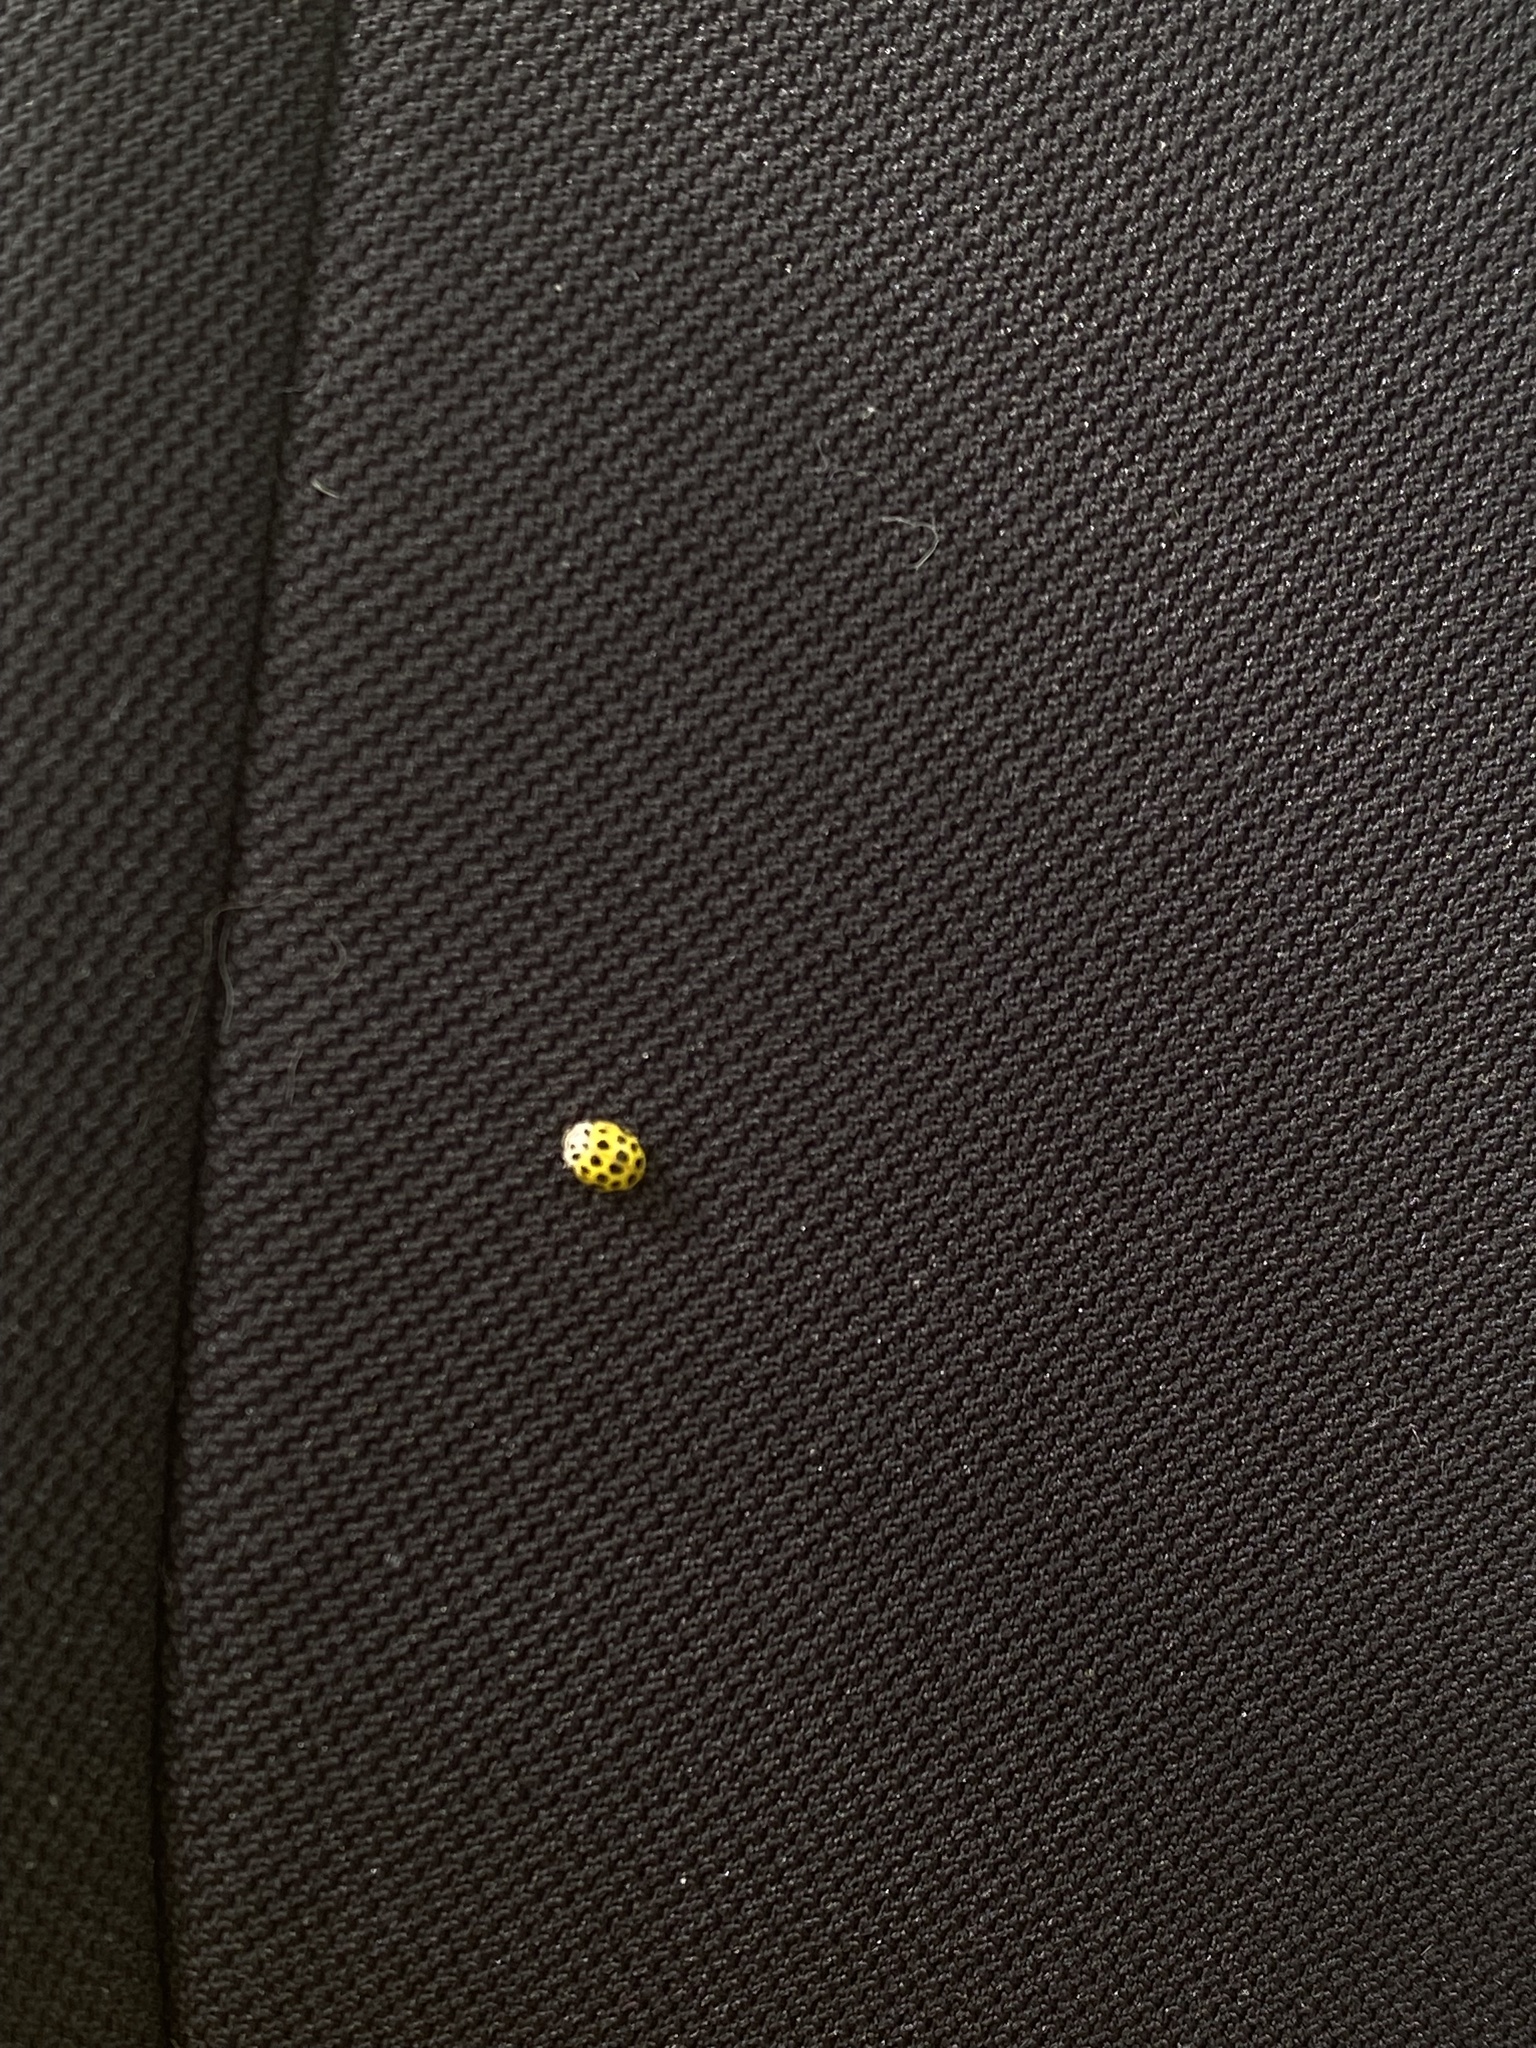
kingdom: Animalia
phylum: Arthropoda
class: Insecta
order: Coleoptera
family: Coccinellidae
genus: Psyllobora
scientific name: Psyllobora vigintiduopunctata
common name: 22-spot ladybird
